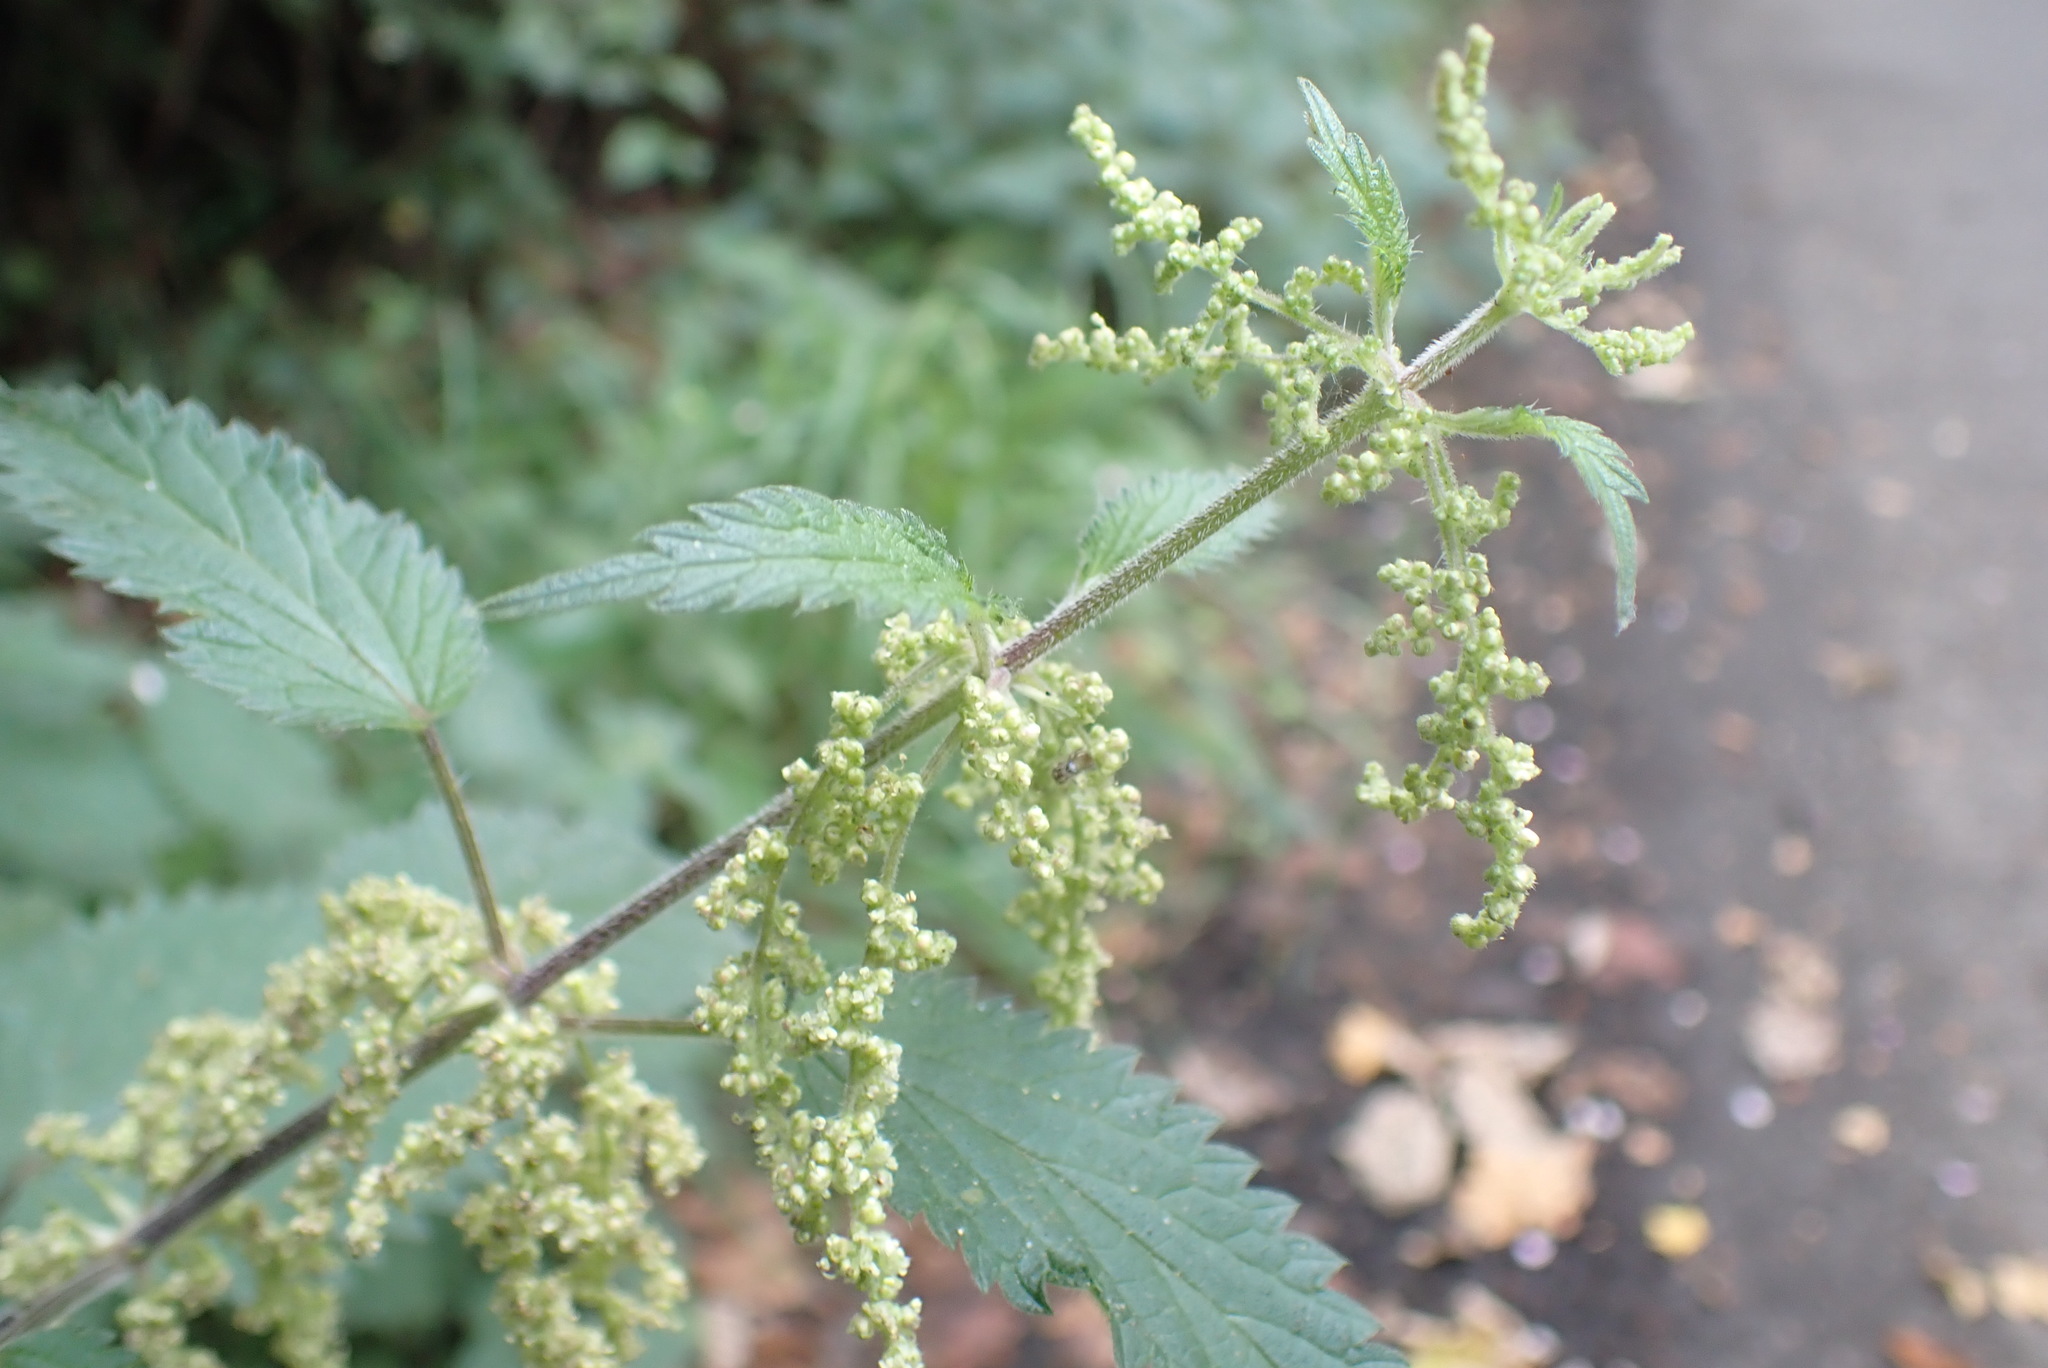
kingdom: Plantae
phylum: Tracheophyta
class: Magnoliopsida
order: Rosales
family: Urticaceae
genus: Urtica
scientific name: Urtica dioica
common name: Common nettle
